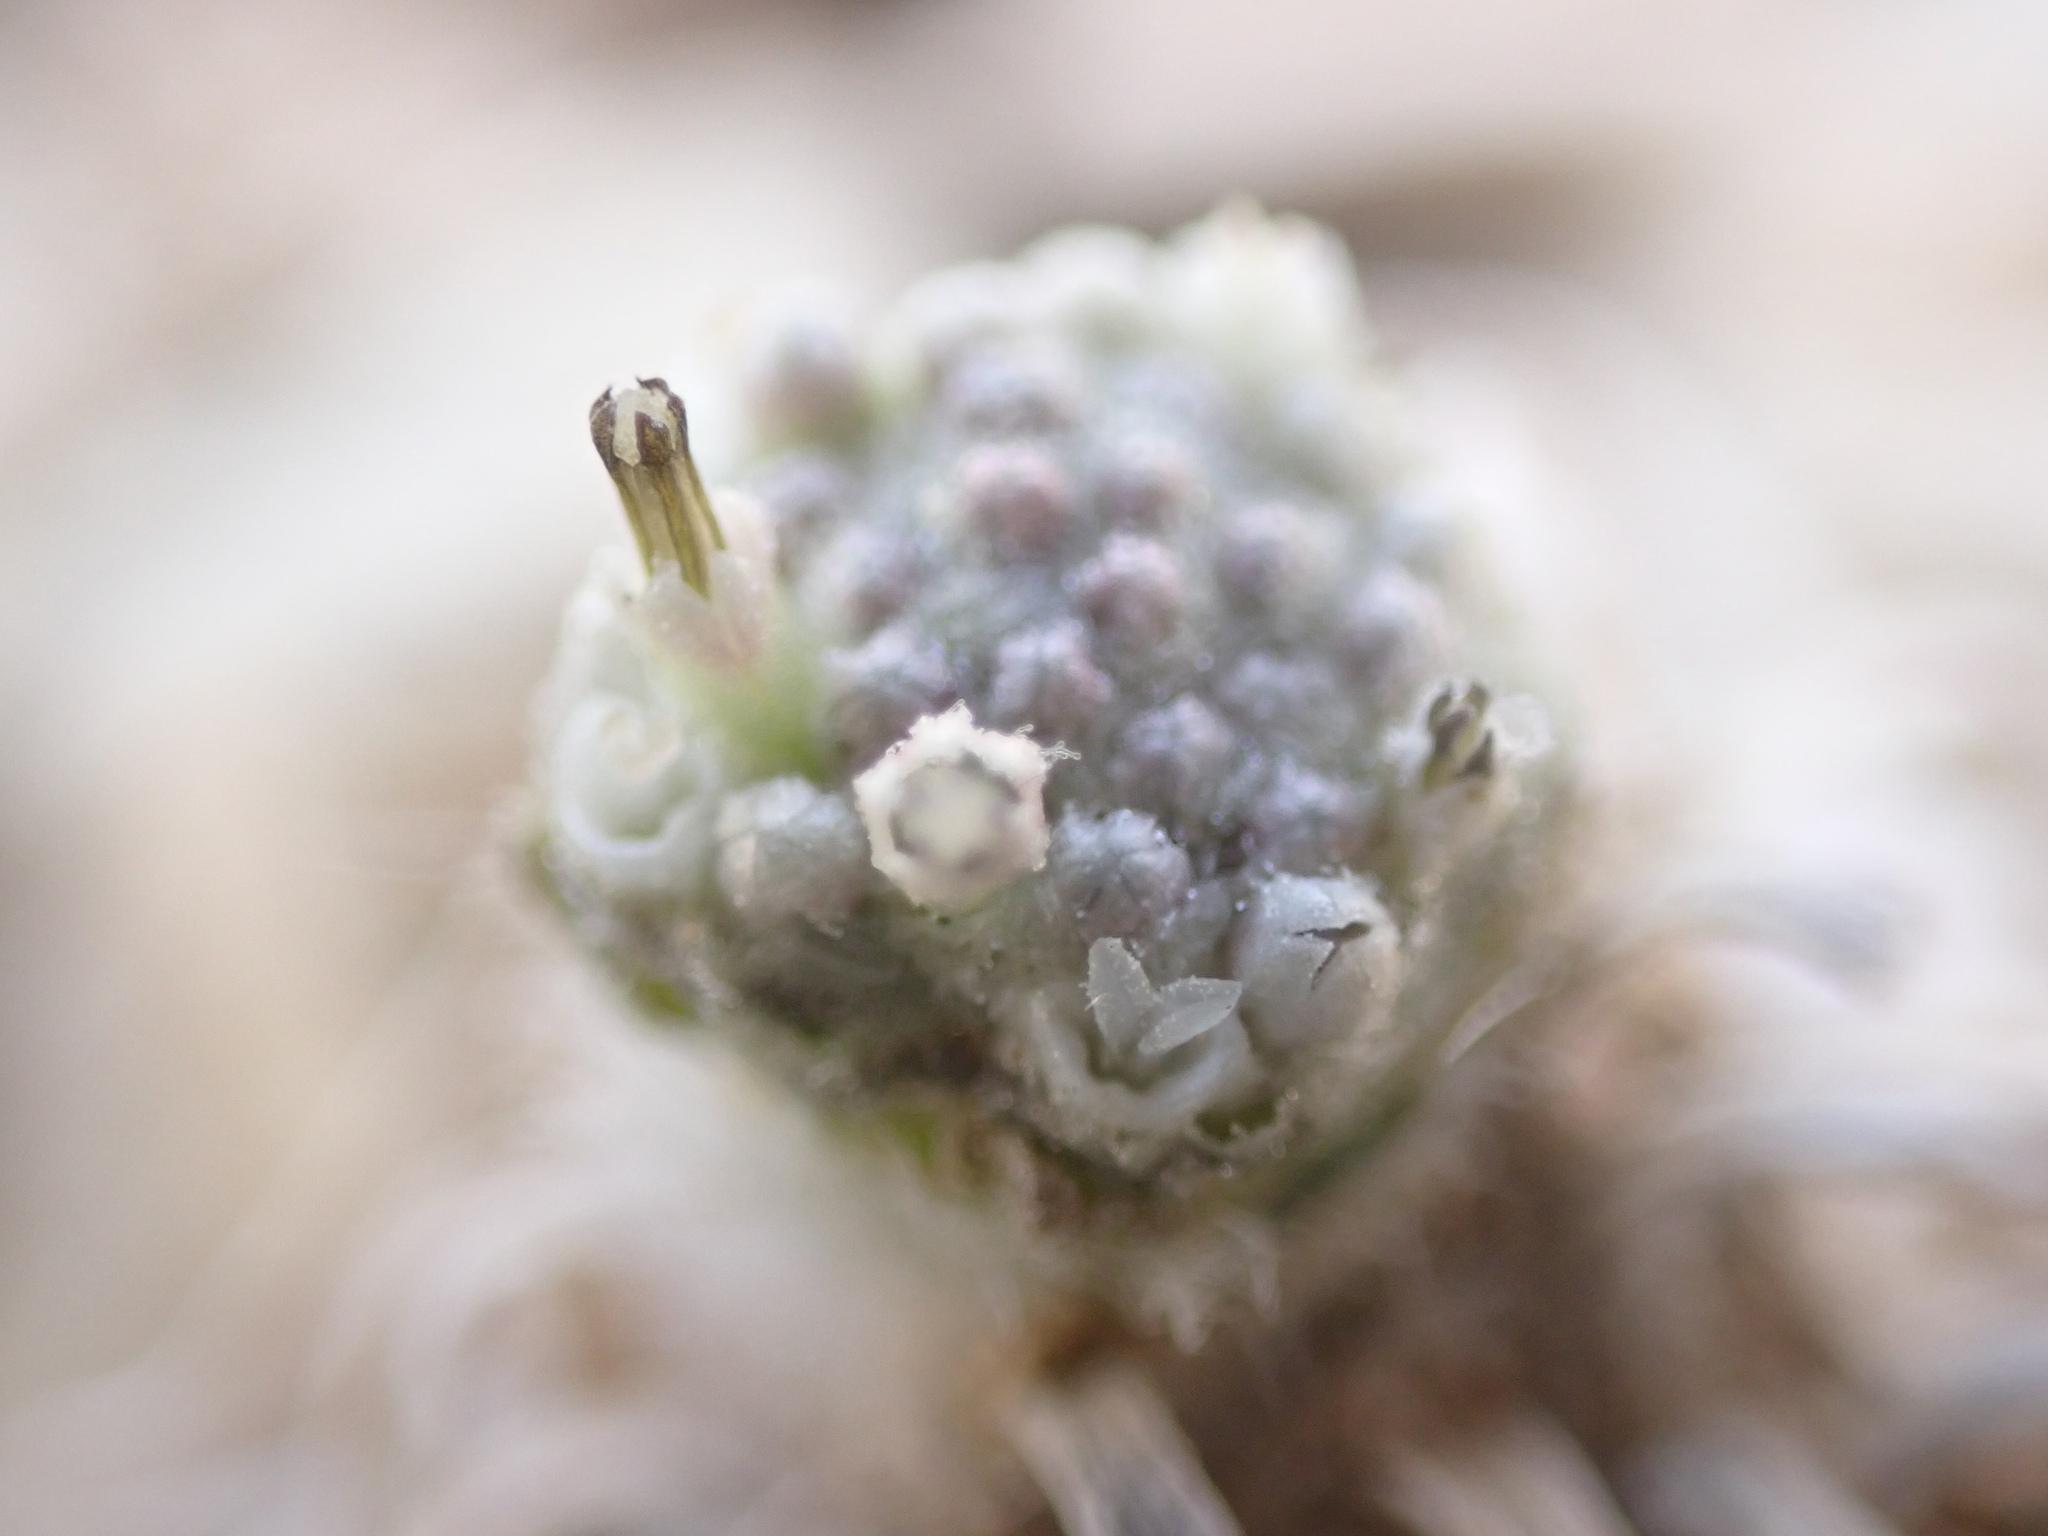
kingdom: Plantae
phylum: Tracheophyta
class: Magnoliopsida
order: Asterales
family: Asteraceae
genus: Parthenium
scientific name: Parthenium tetraneuris
